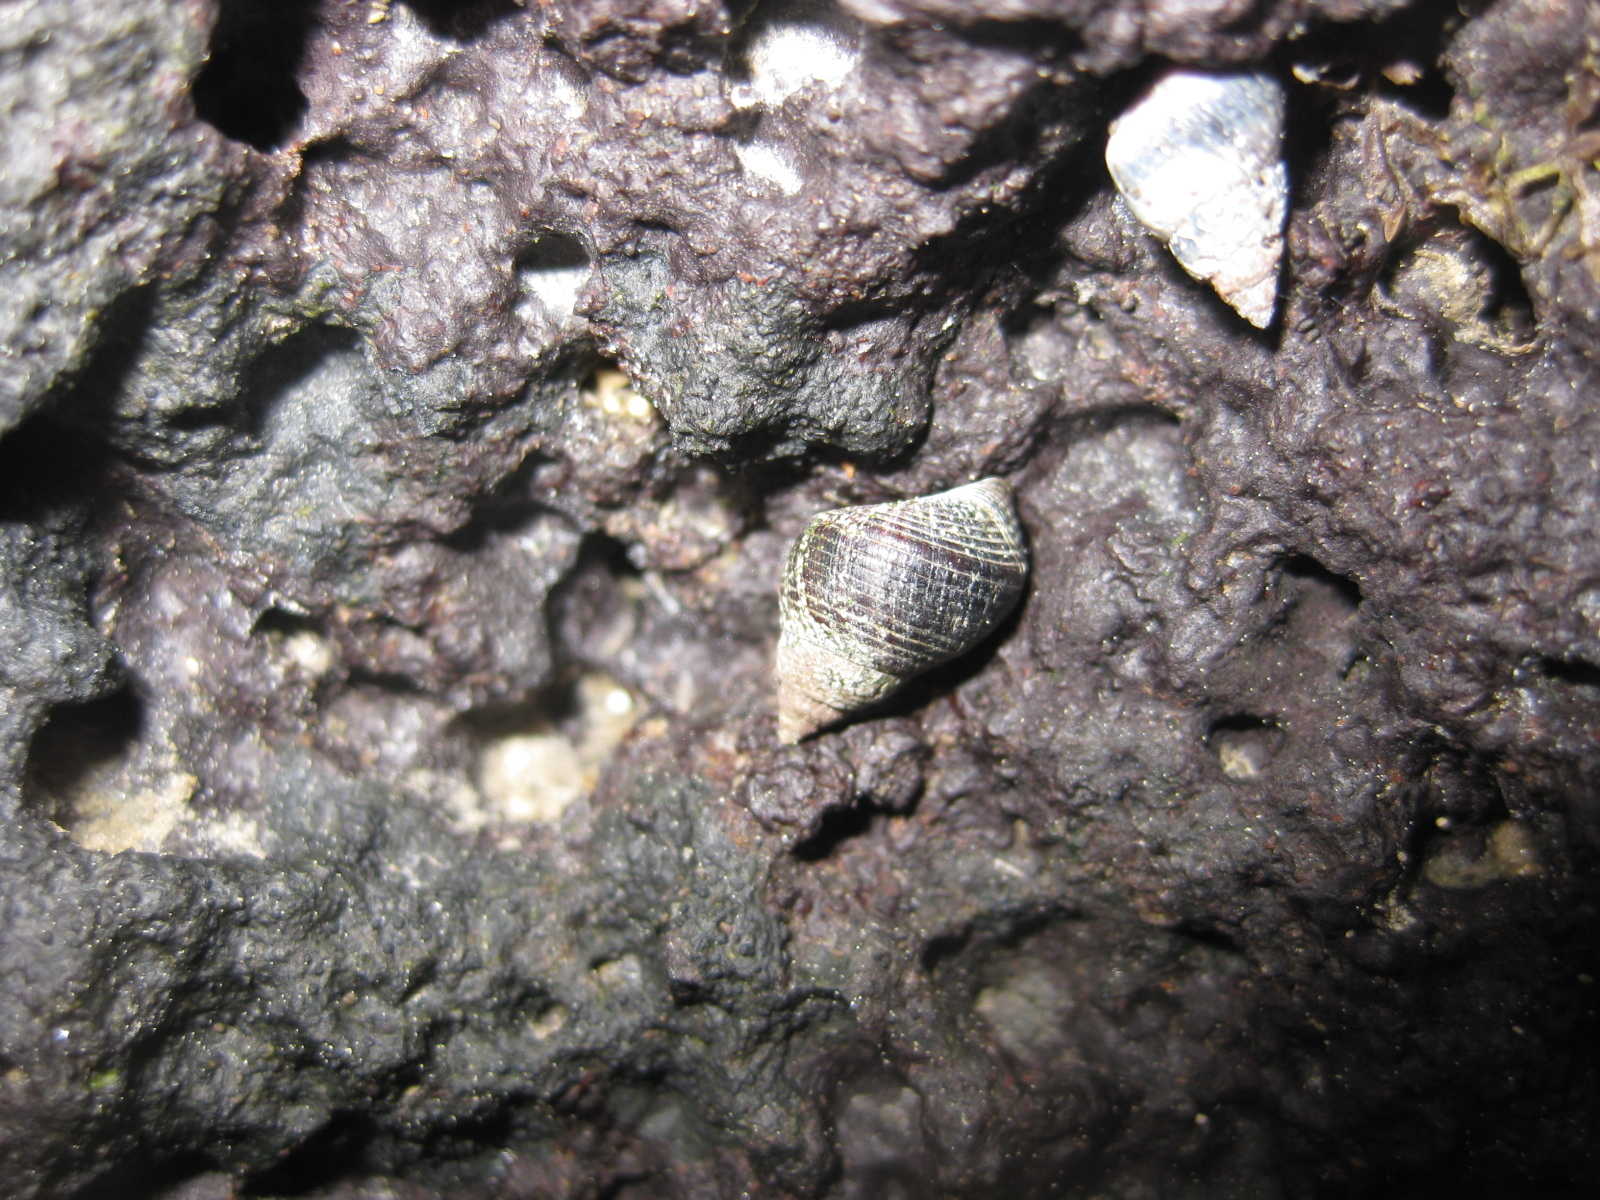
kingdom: Animalia
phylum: Mollusca
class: Gastropoda
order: Littorinimorpha
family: Littorinidae
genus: Austrolittorina
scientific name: Austrolittorina cincta
